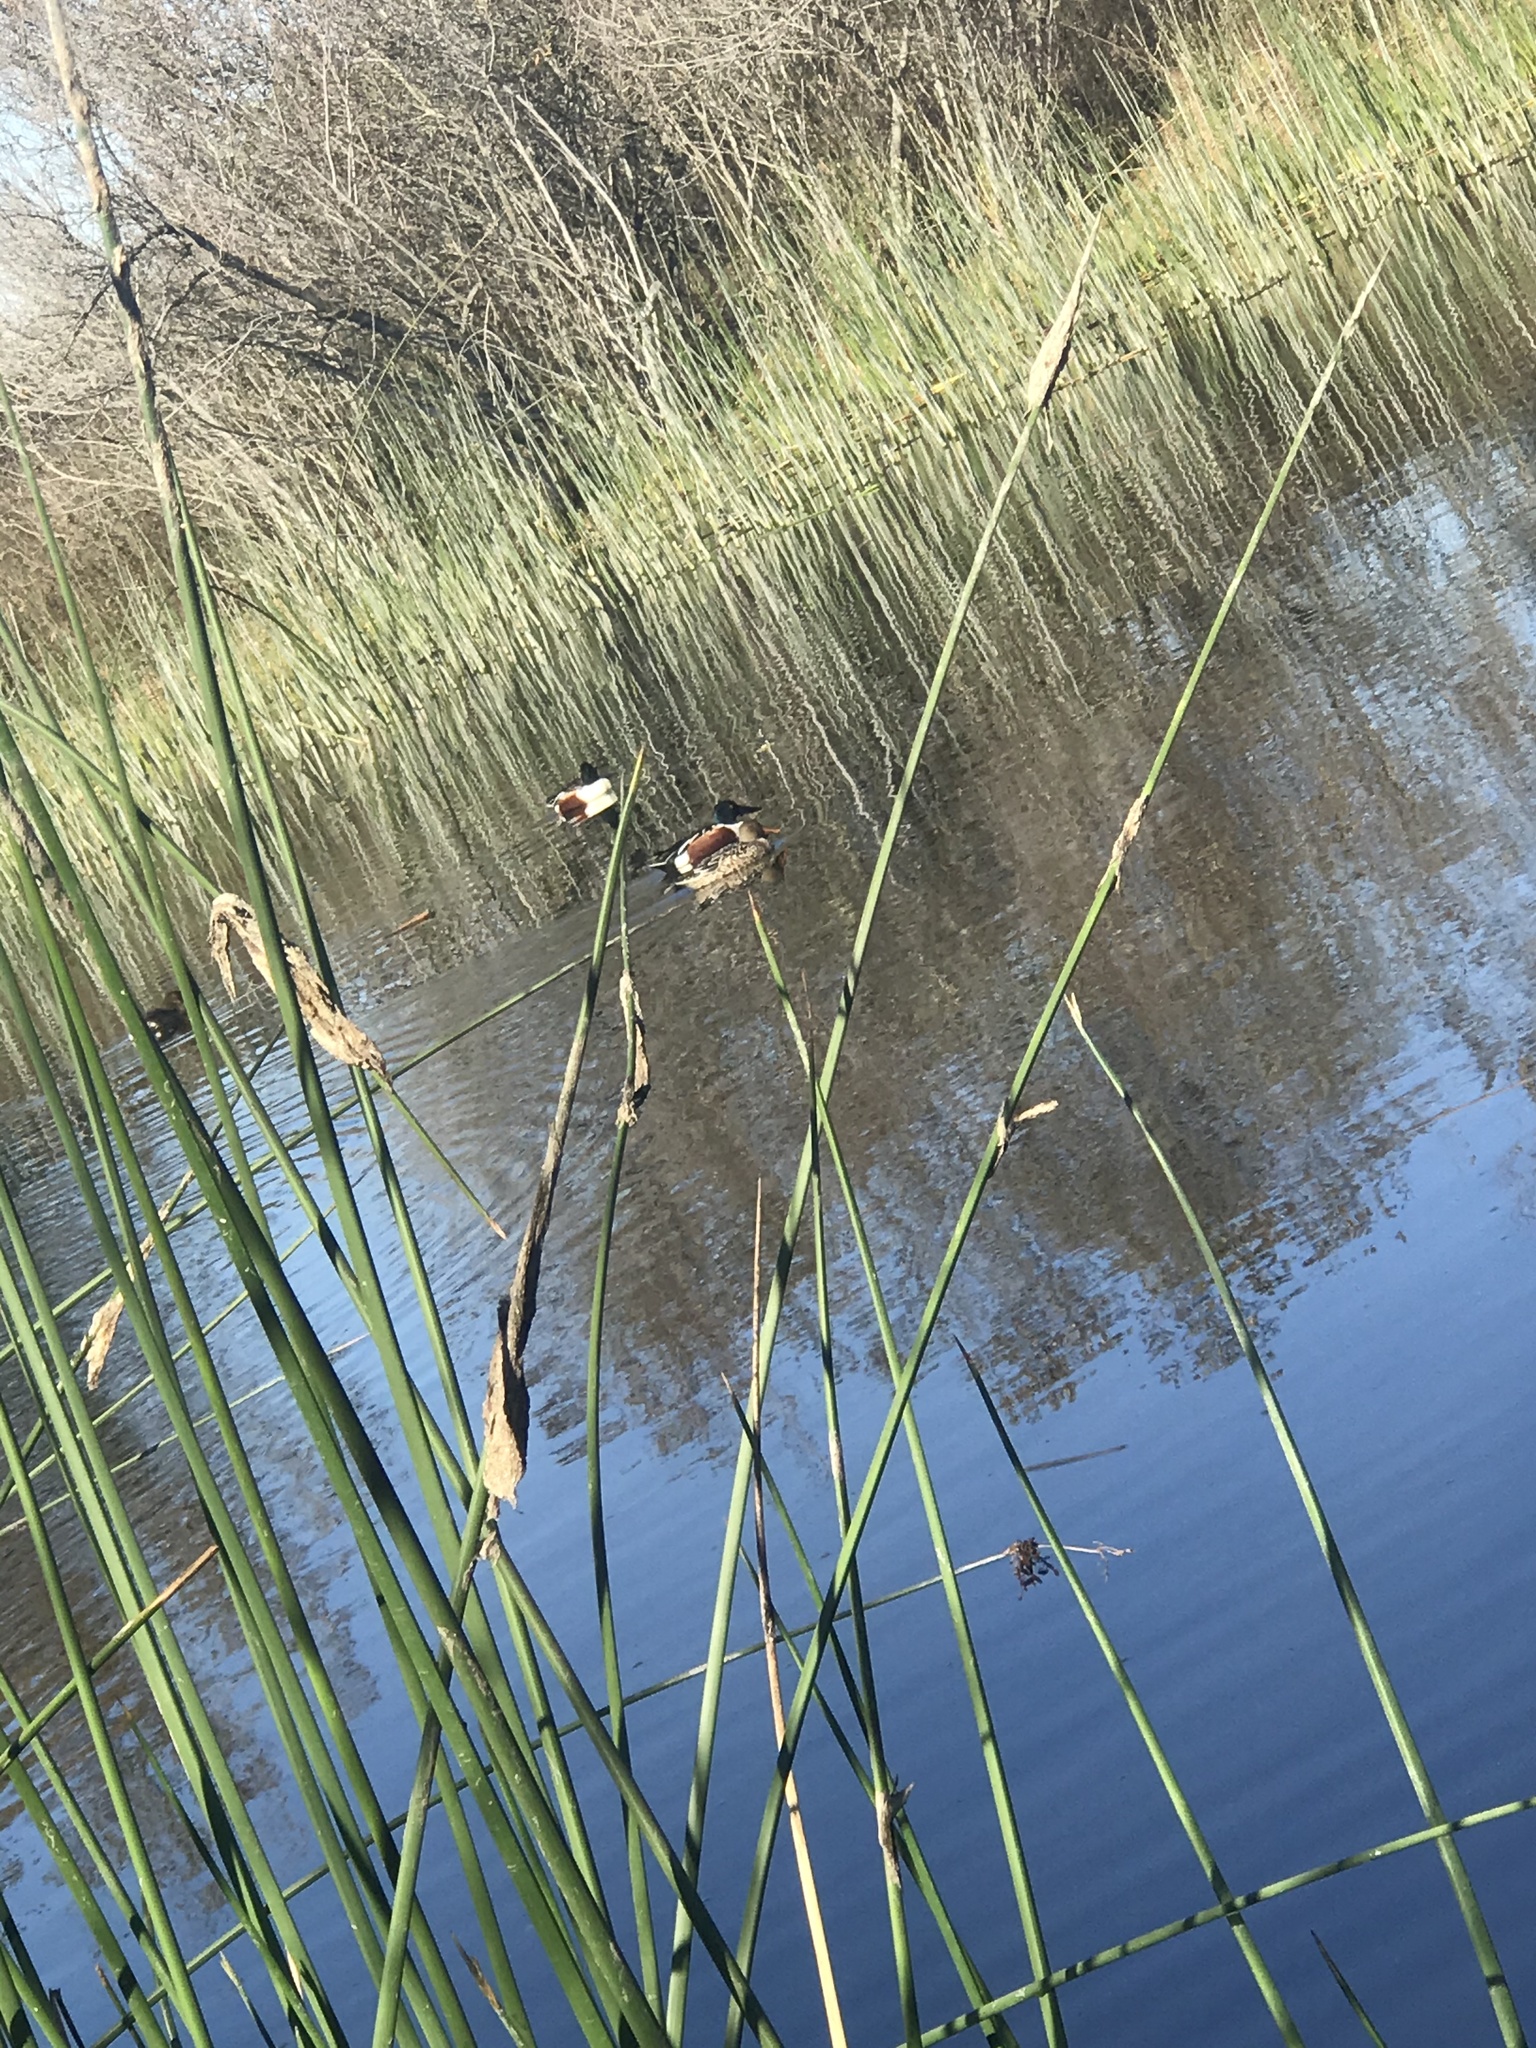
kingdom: Animalia
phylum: Chordata
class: Aves
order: Anseriformes
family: Anatidae
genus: Spatula
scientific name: Spatula clypeata
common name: Northern shoveler
